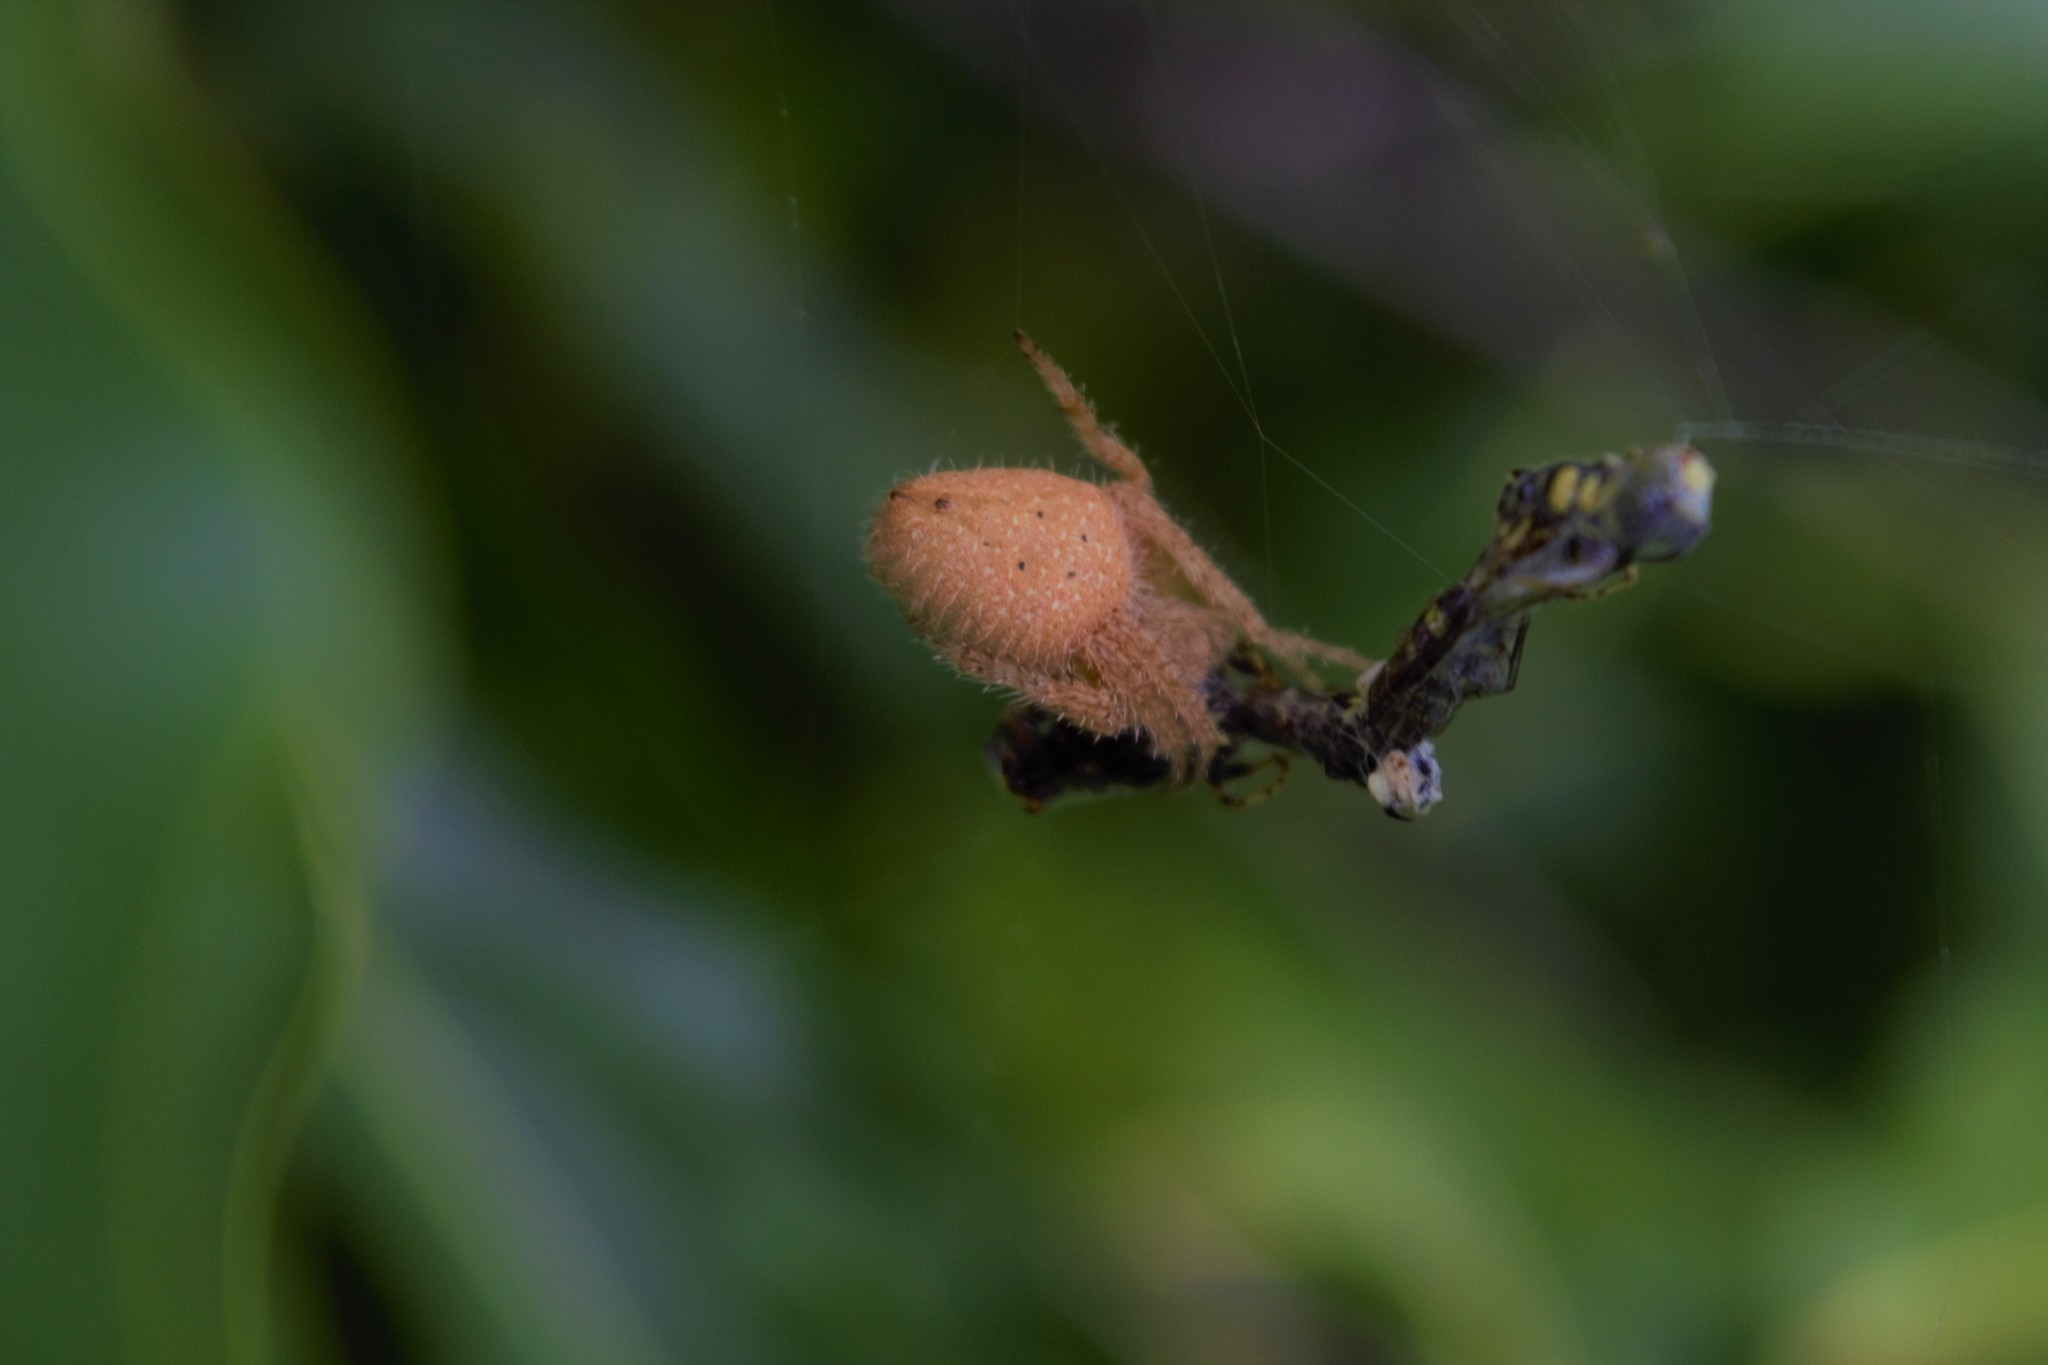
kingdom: Animalia
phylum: Arthropoda
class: Arachnida
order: Araneae
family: Araneidae
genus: Eriophora
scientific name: Eriophora edax
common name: Orb weavers
